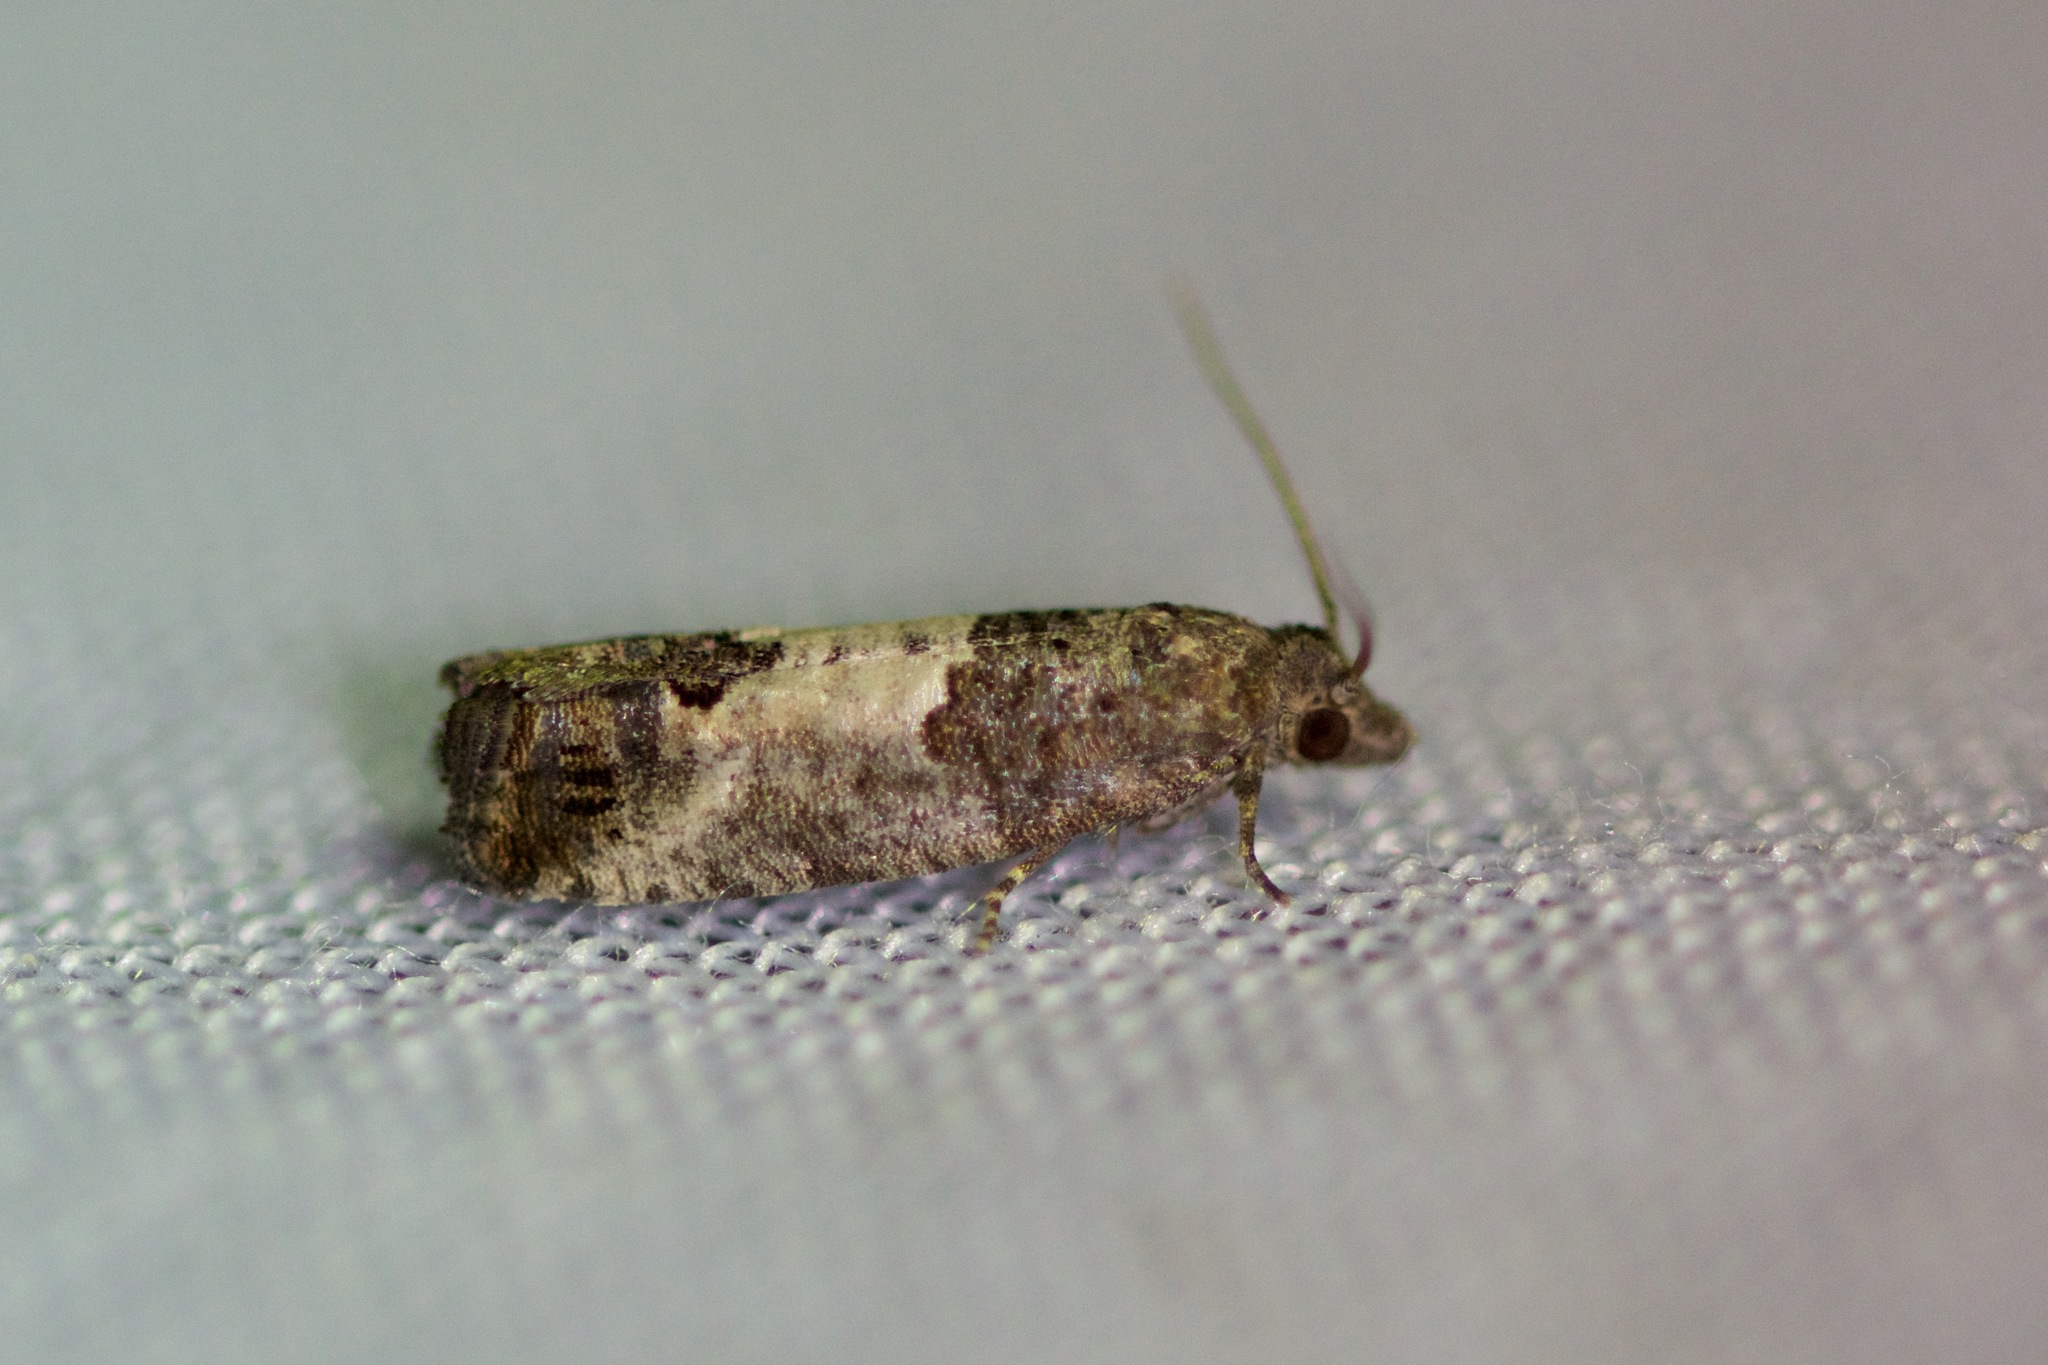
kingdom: Animalia
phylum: Arthropoda
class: Insecta
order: Lepidoptera
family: Tortricidae
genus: Spilonota
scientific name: Spilonota ocellana
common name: Bud moth
